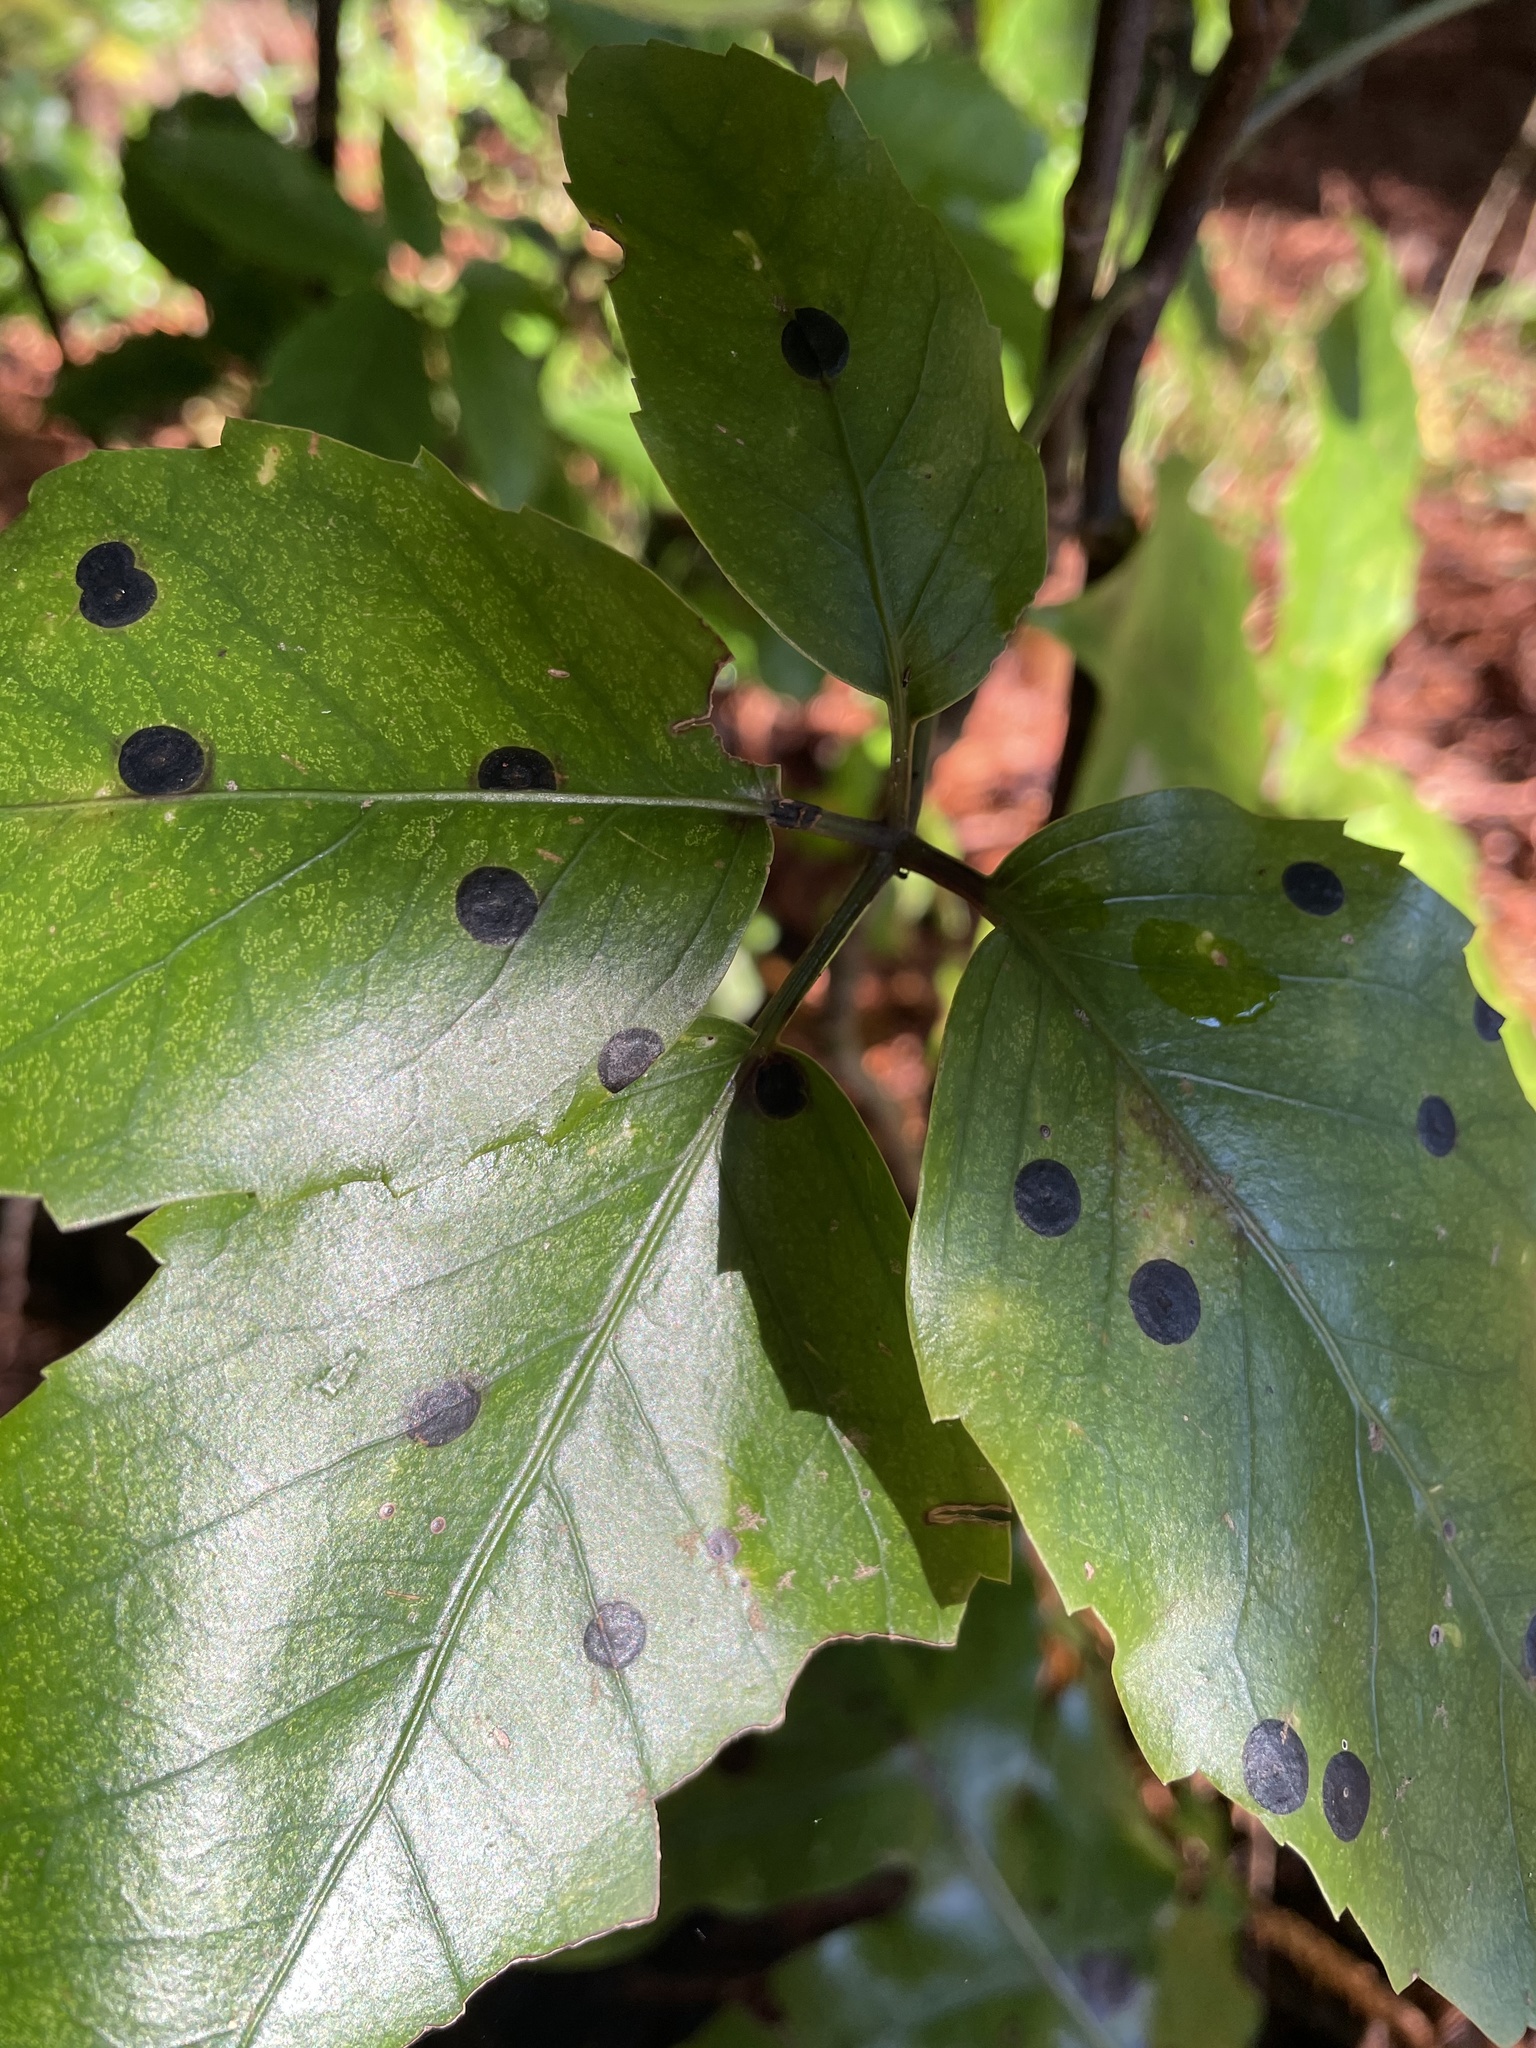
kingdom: Fungi
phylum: Ascomycota
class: Dothideomycetes
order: Asterinales
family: Asterinaceae
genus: Placosoma
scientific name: Placosoma nothopanacis
